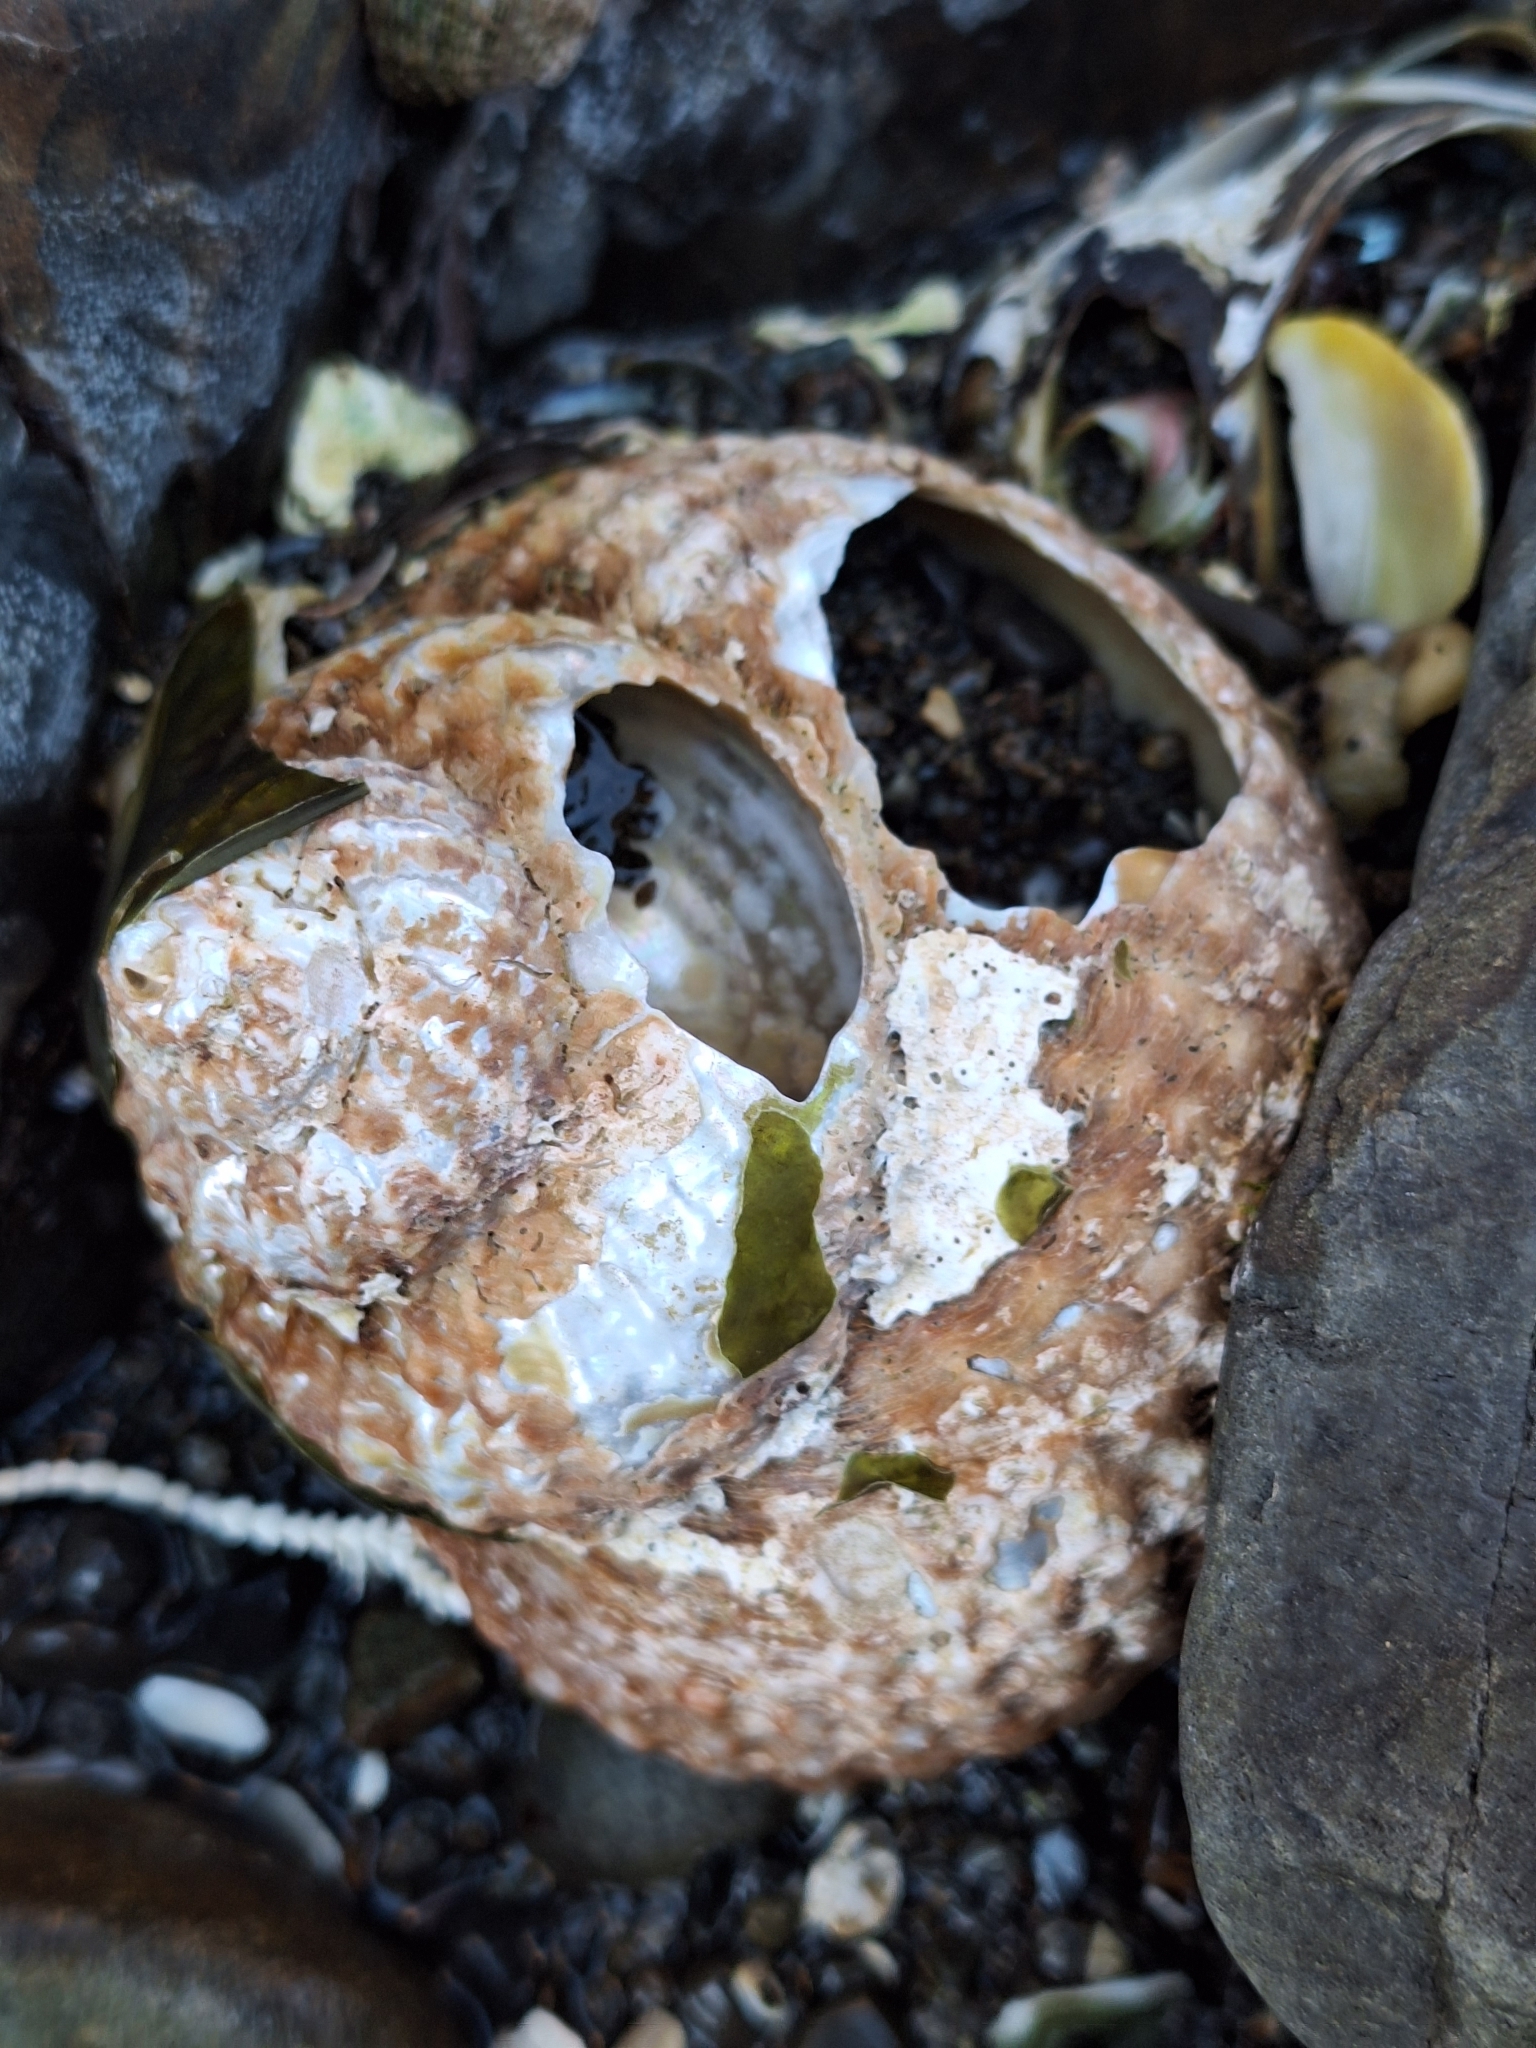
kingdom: Animalia
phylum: Mollusca
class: Gastropoda
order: Trochida
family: Turbinidae
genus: Cookia
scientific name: Cookia sulcata
